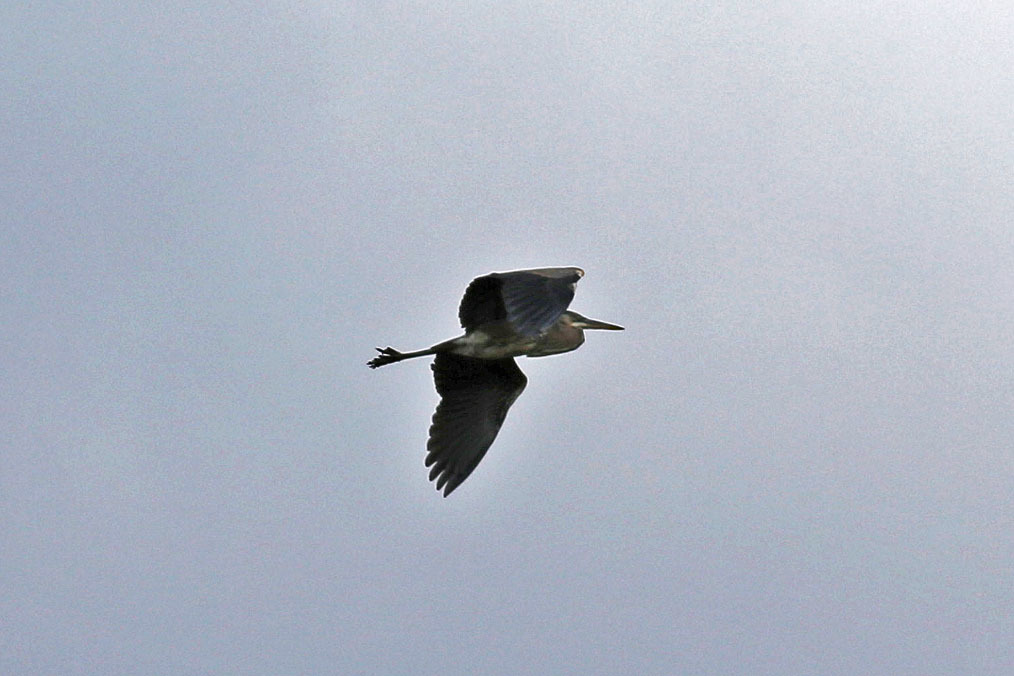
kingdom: Animalia
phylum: Chordata
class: Aves
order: Pelecaniformes
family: Ardeidae
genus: Ardea
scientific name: Ardea herodias
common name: Great blue heron
